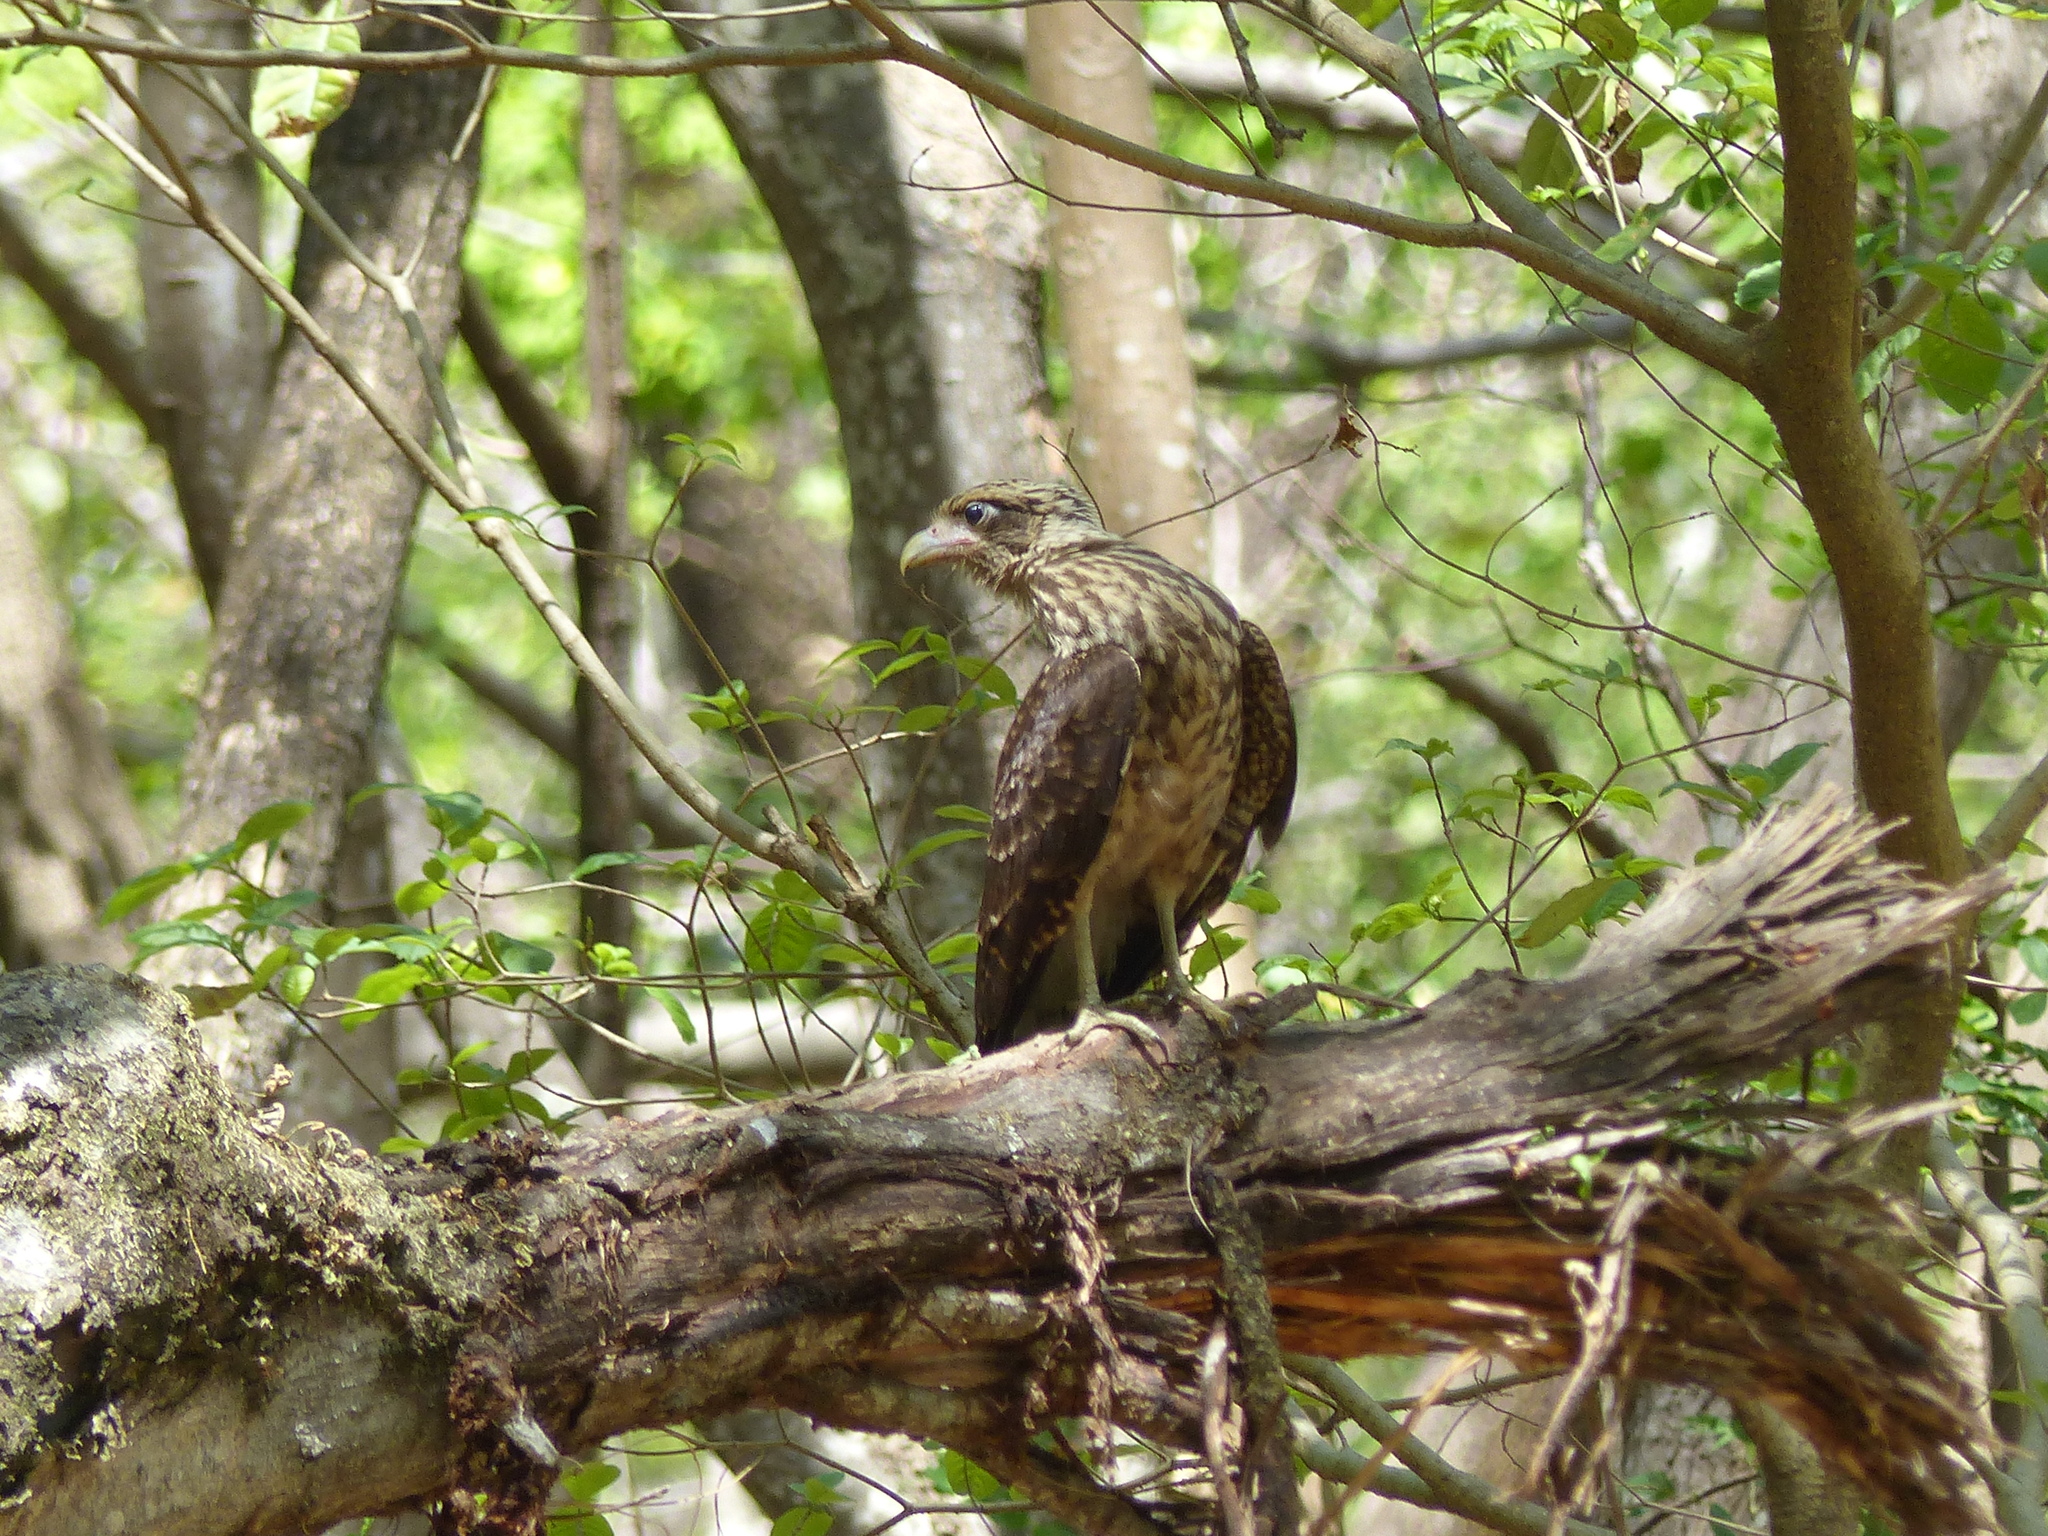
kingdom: Animalia
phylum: Chordata
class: Aves
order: Falconiformes
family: Falconidae
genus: Daptrius
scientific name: Daptrius
